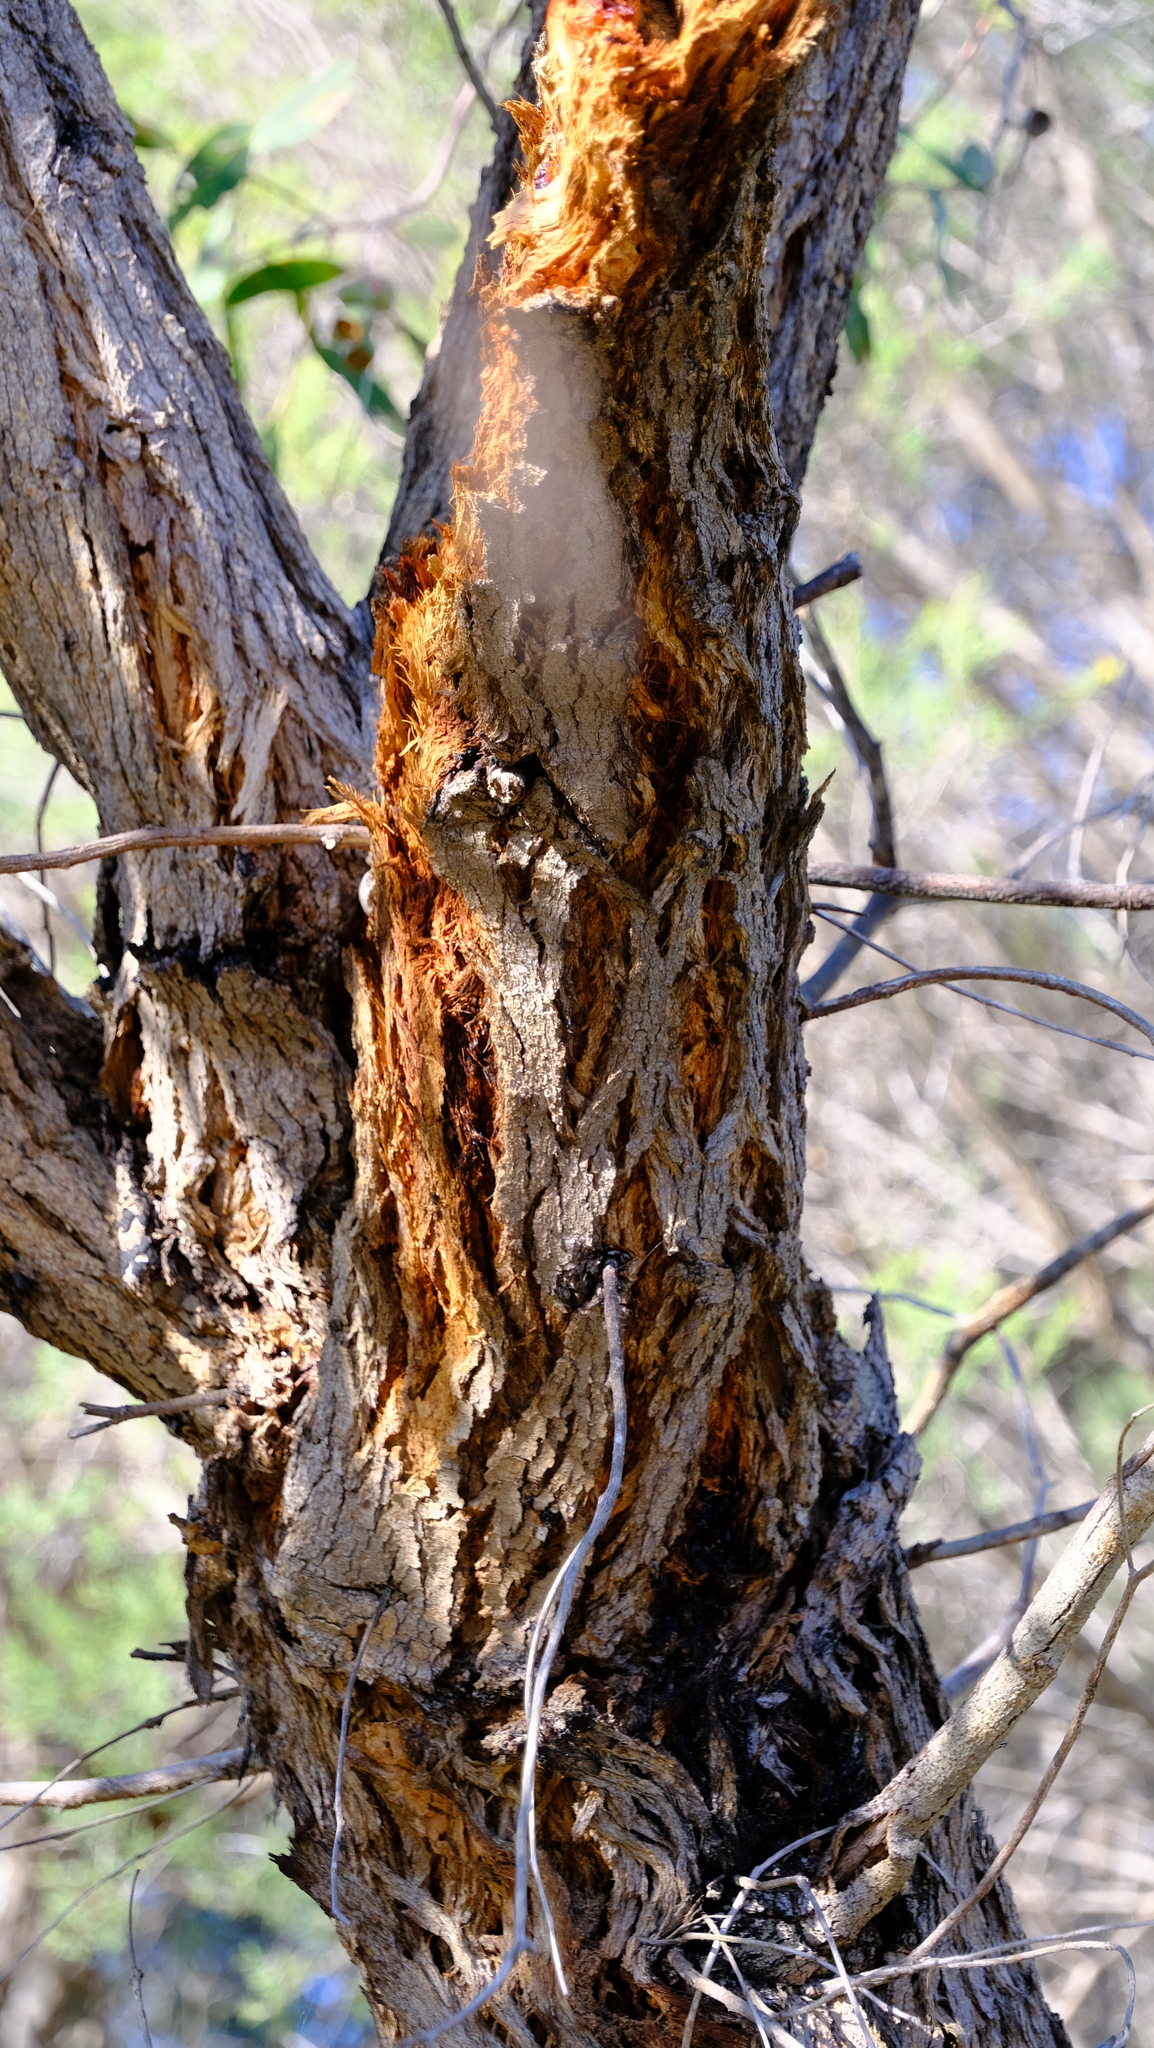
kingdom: Plantae
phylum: Tracheophyta
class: Magnoliopsida
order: Myrtales
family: Myrtaceae
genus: Eucalyptus
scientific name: Eucalyptus todtiana
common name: Coastal blackbutt
